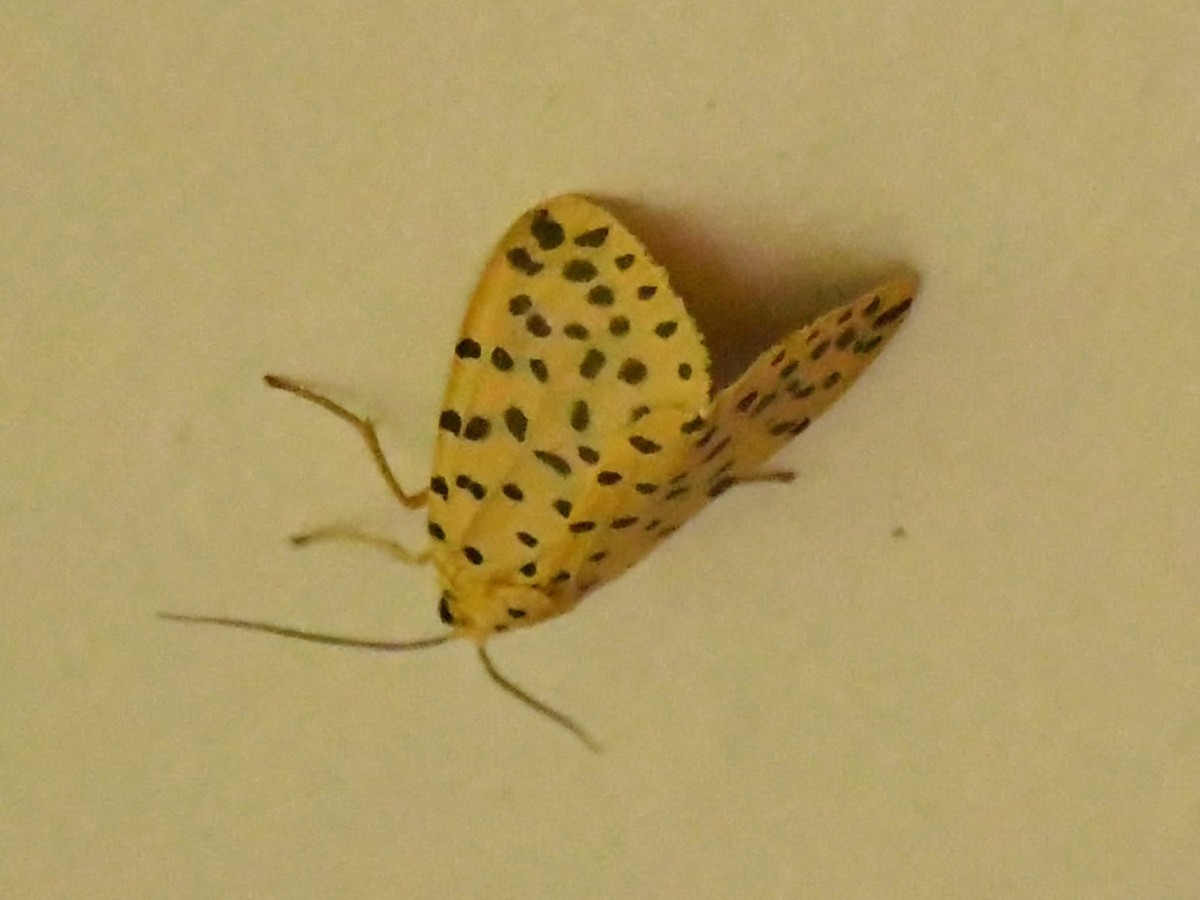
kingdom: Animalia
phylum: Arthropoda
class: Insecta
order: Lepidoptera
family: Erebidae
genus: Argina
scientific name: Argina astrea
